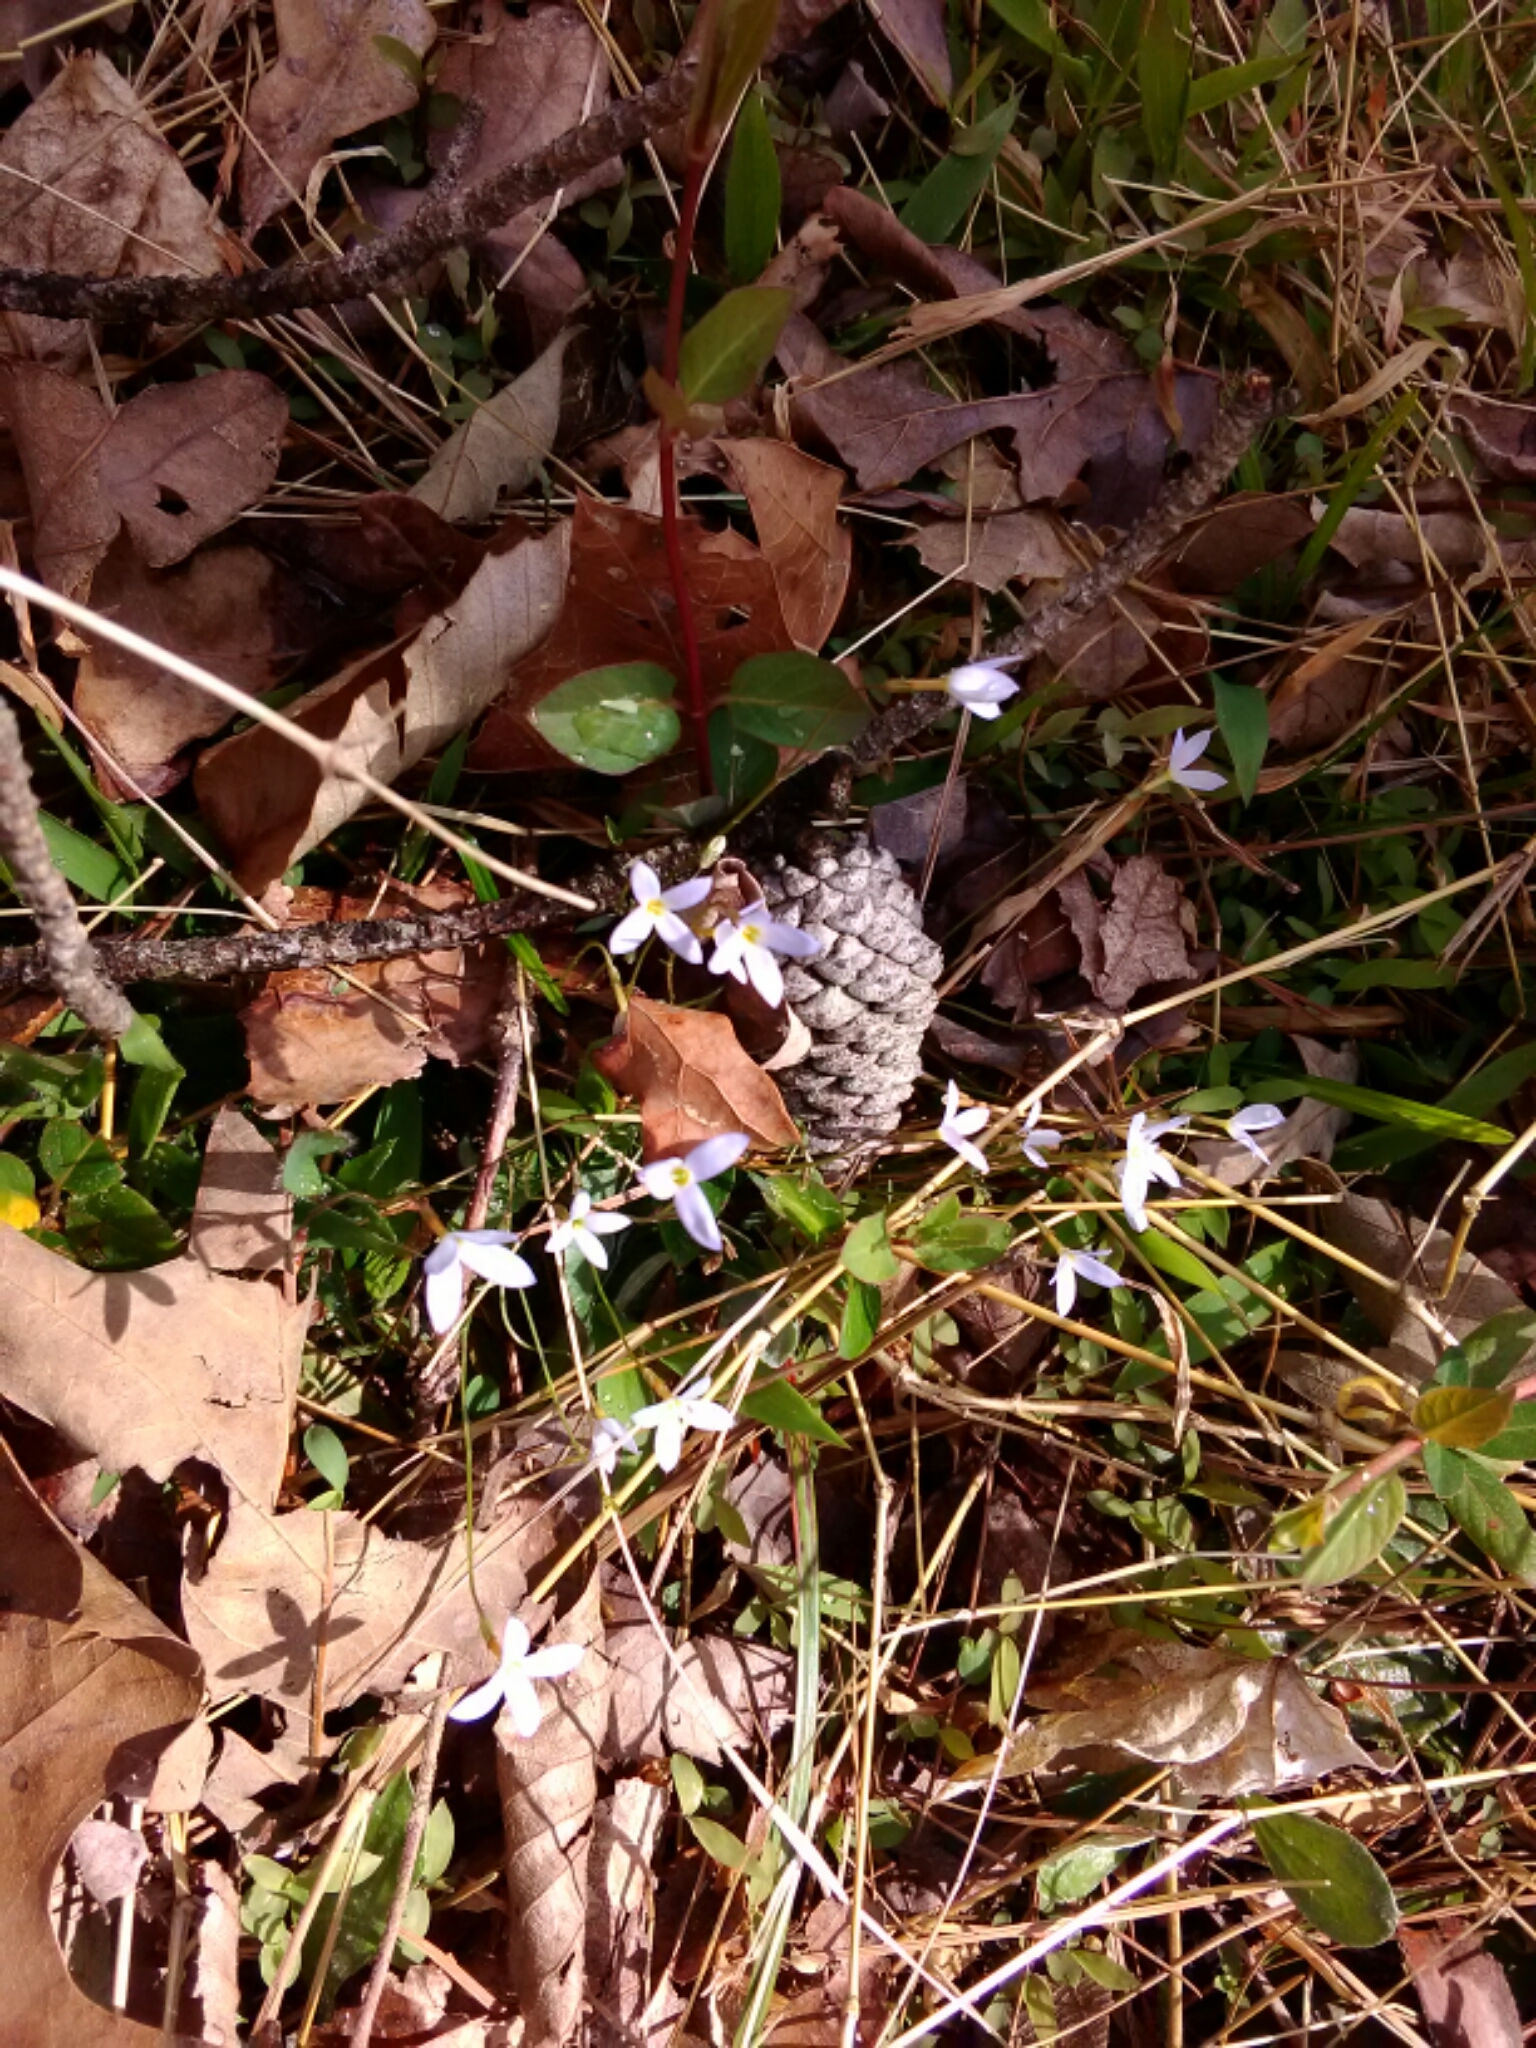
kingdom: Plantae
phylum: Tracheophyta
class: Magnoliopsida
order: Gentianales
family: Rubiaceae
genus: Houstonia
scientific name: Houstonia caerulea
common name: Bluets
